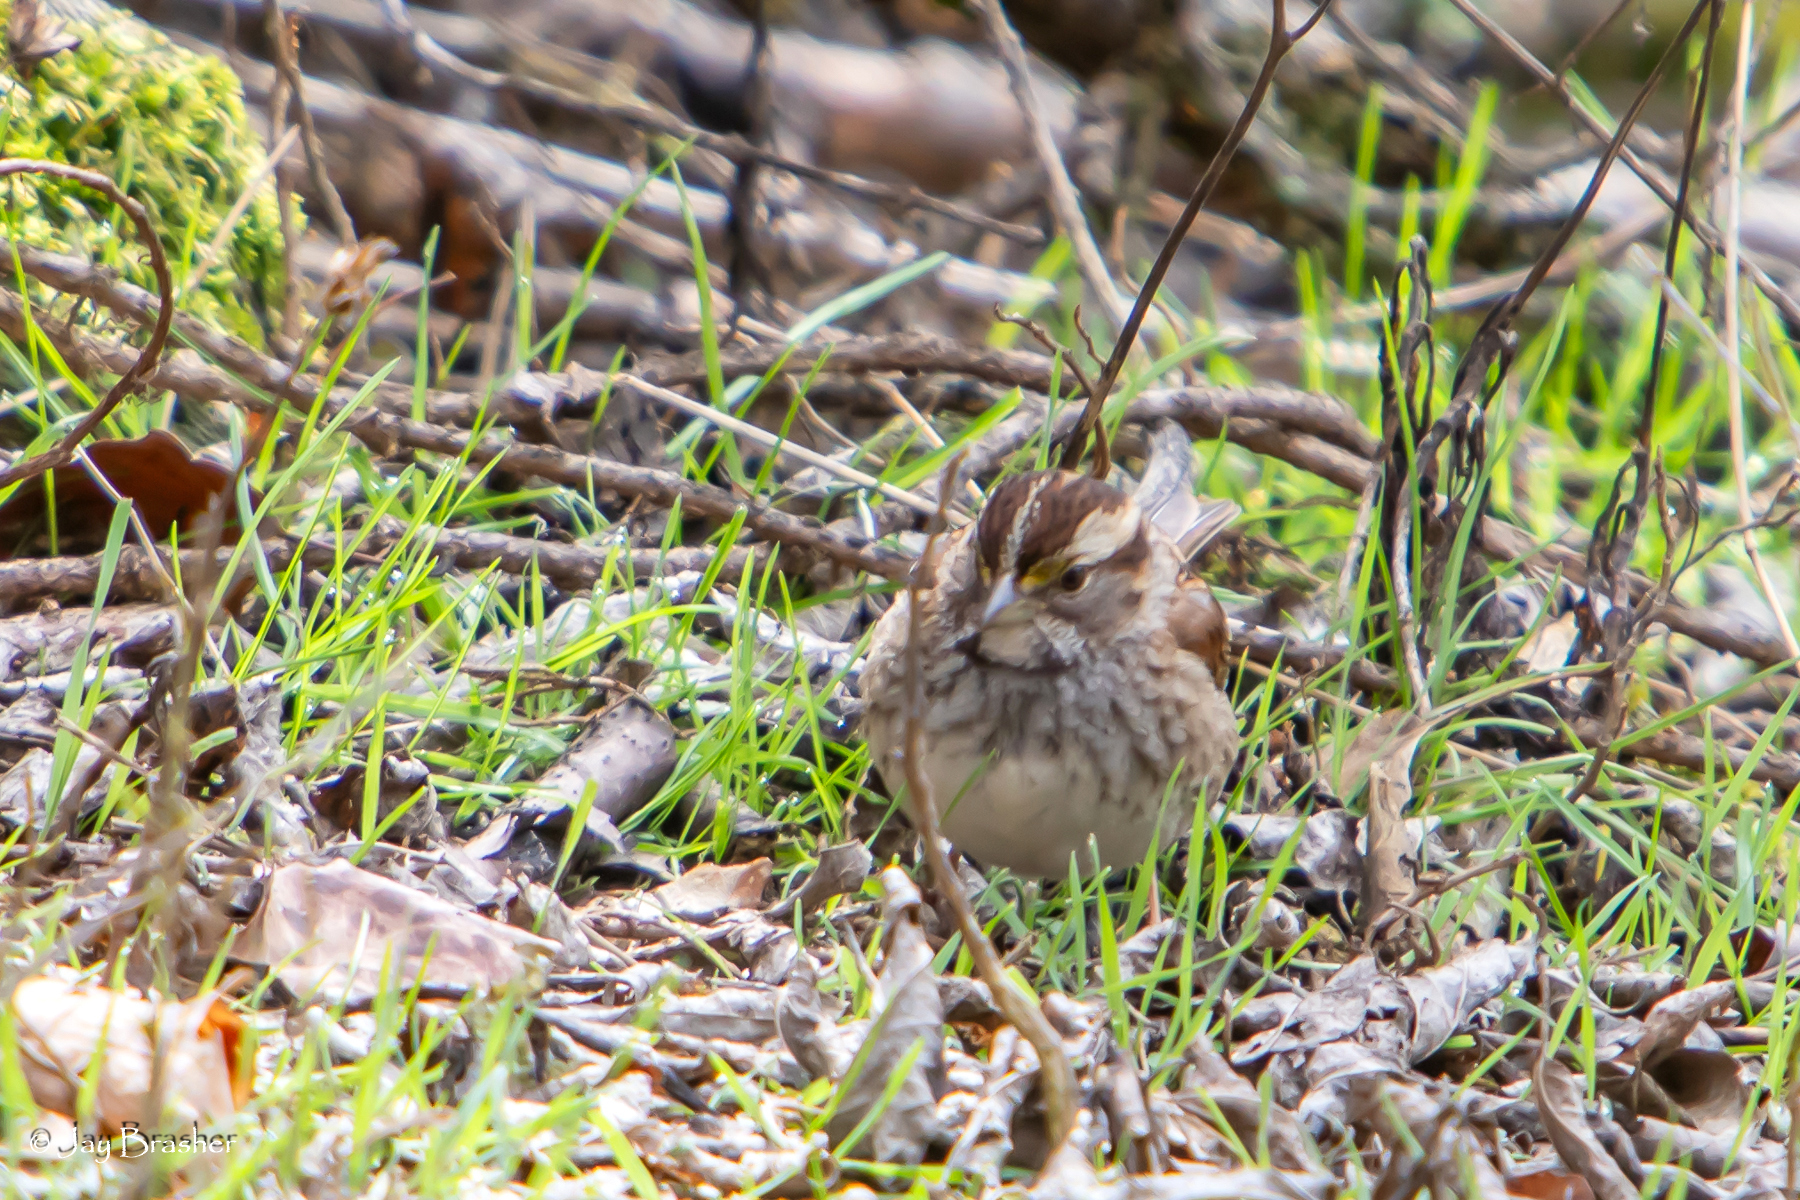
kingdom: Animalia
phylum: Chordata
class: Aves
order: Passeriformes
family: Passerellidae
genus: Zonotrichia
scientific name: Zonotrichia albicollis
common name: White-throated sparrow
